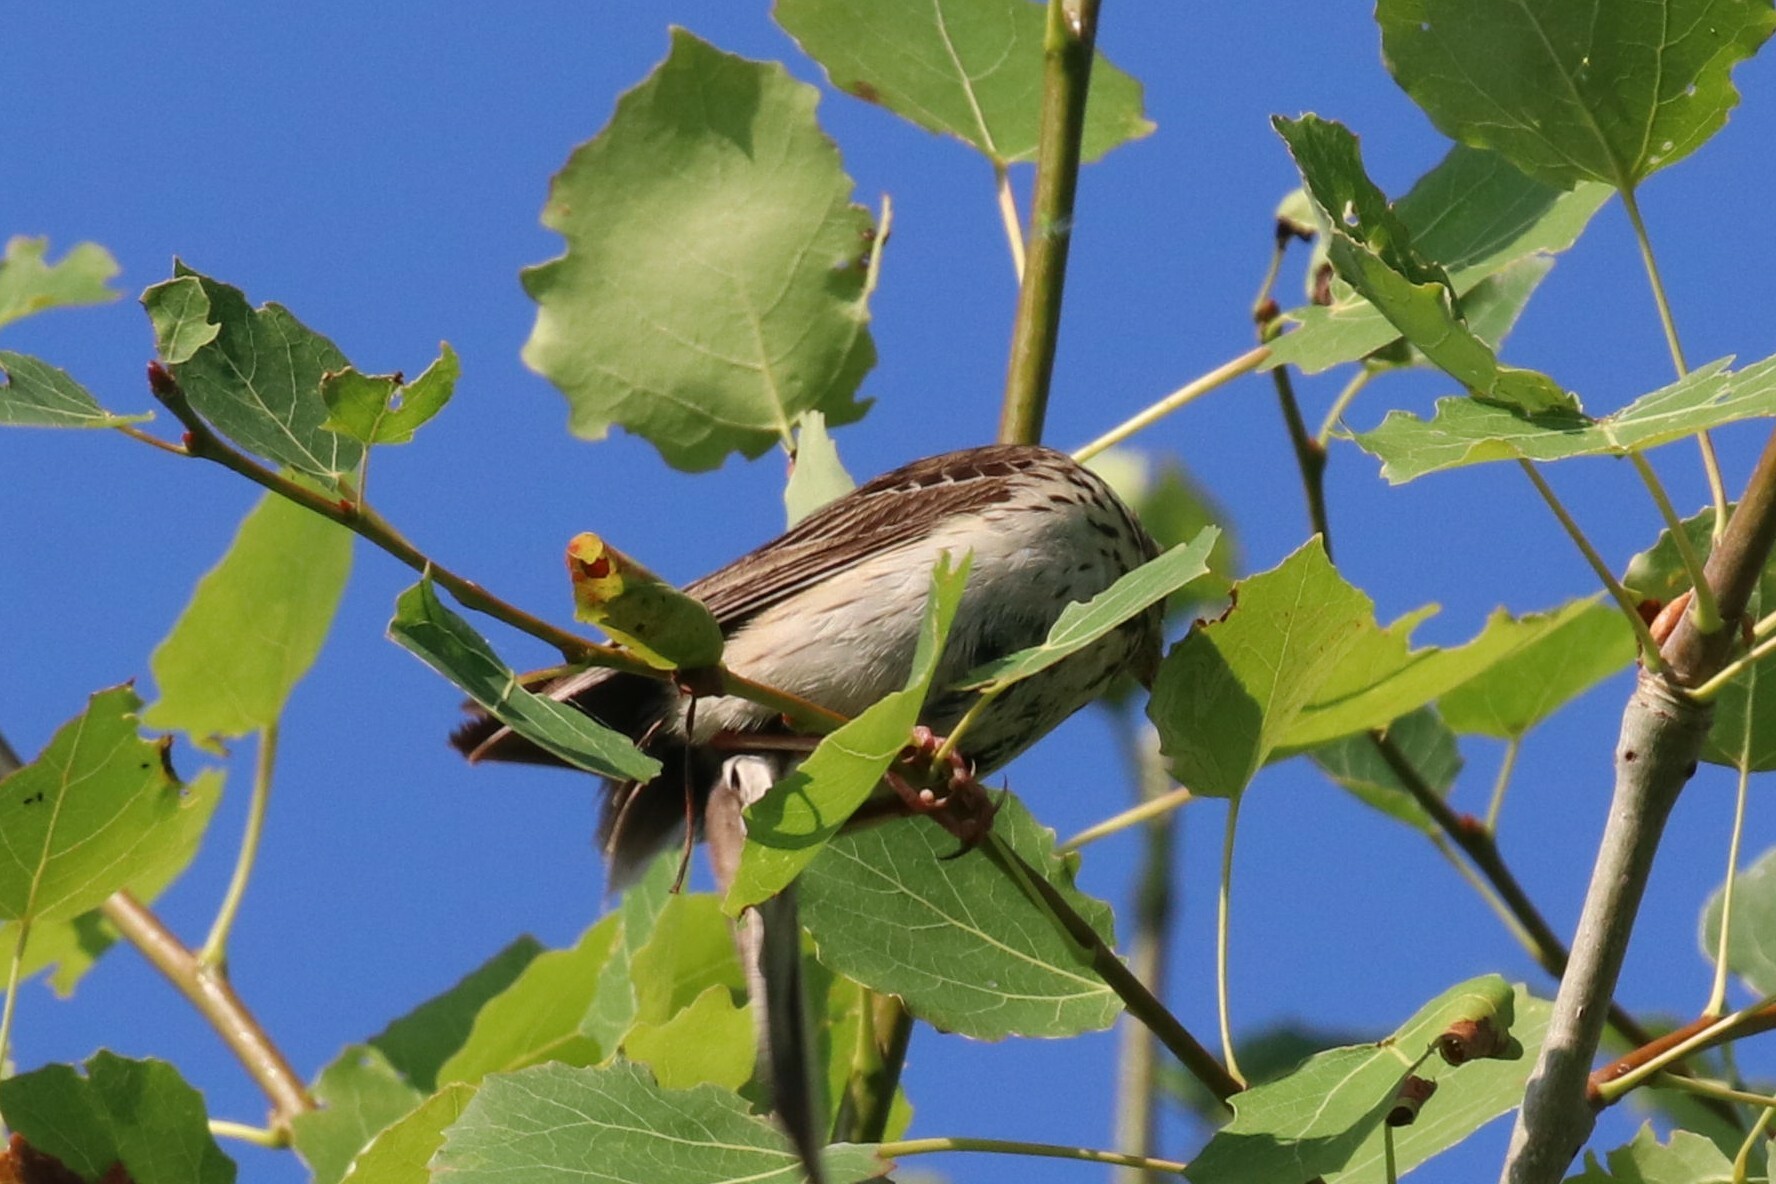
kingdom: Animalia
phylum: Chordata
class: Aves
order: Passeriformes
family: Motacillidae
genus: Anthus
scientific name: Anthus trivialis
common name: Tree pipit
